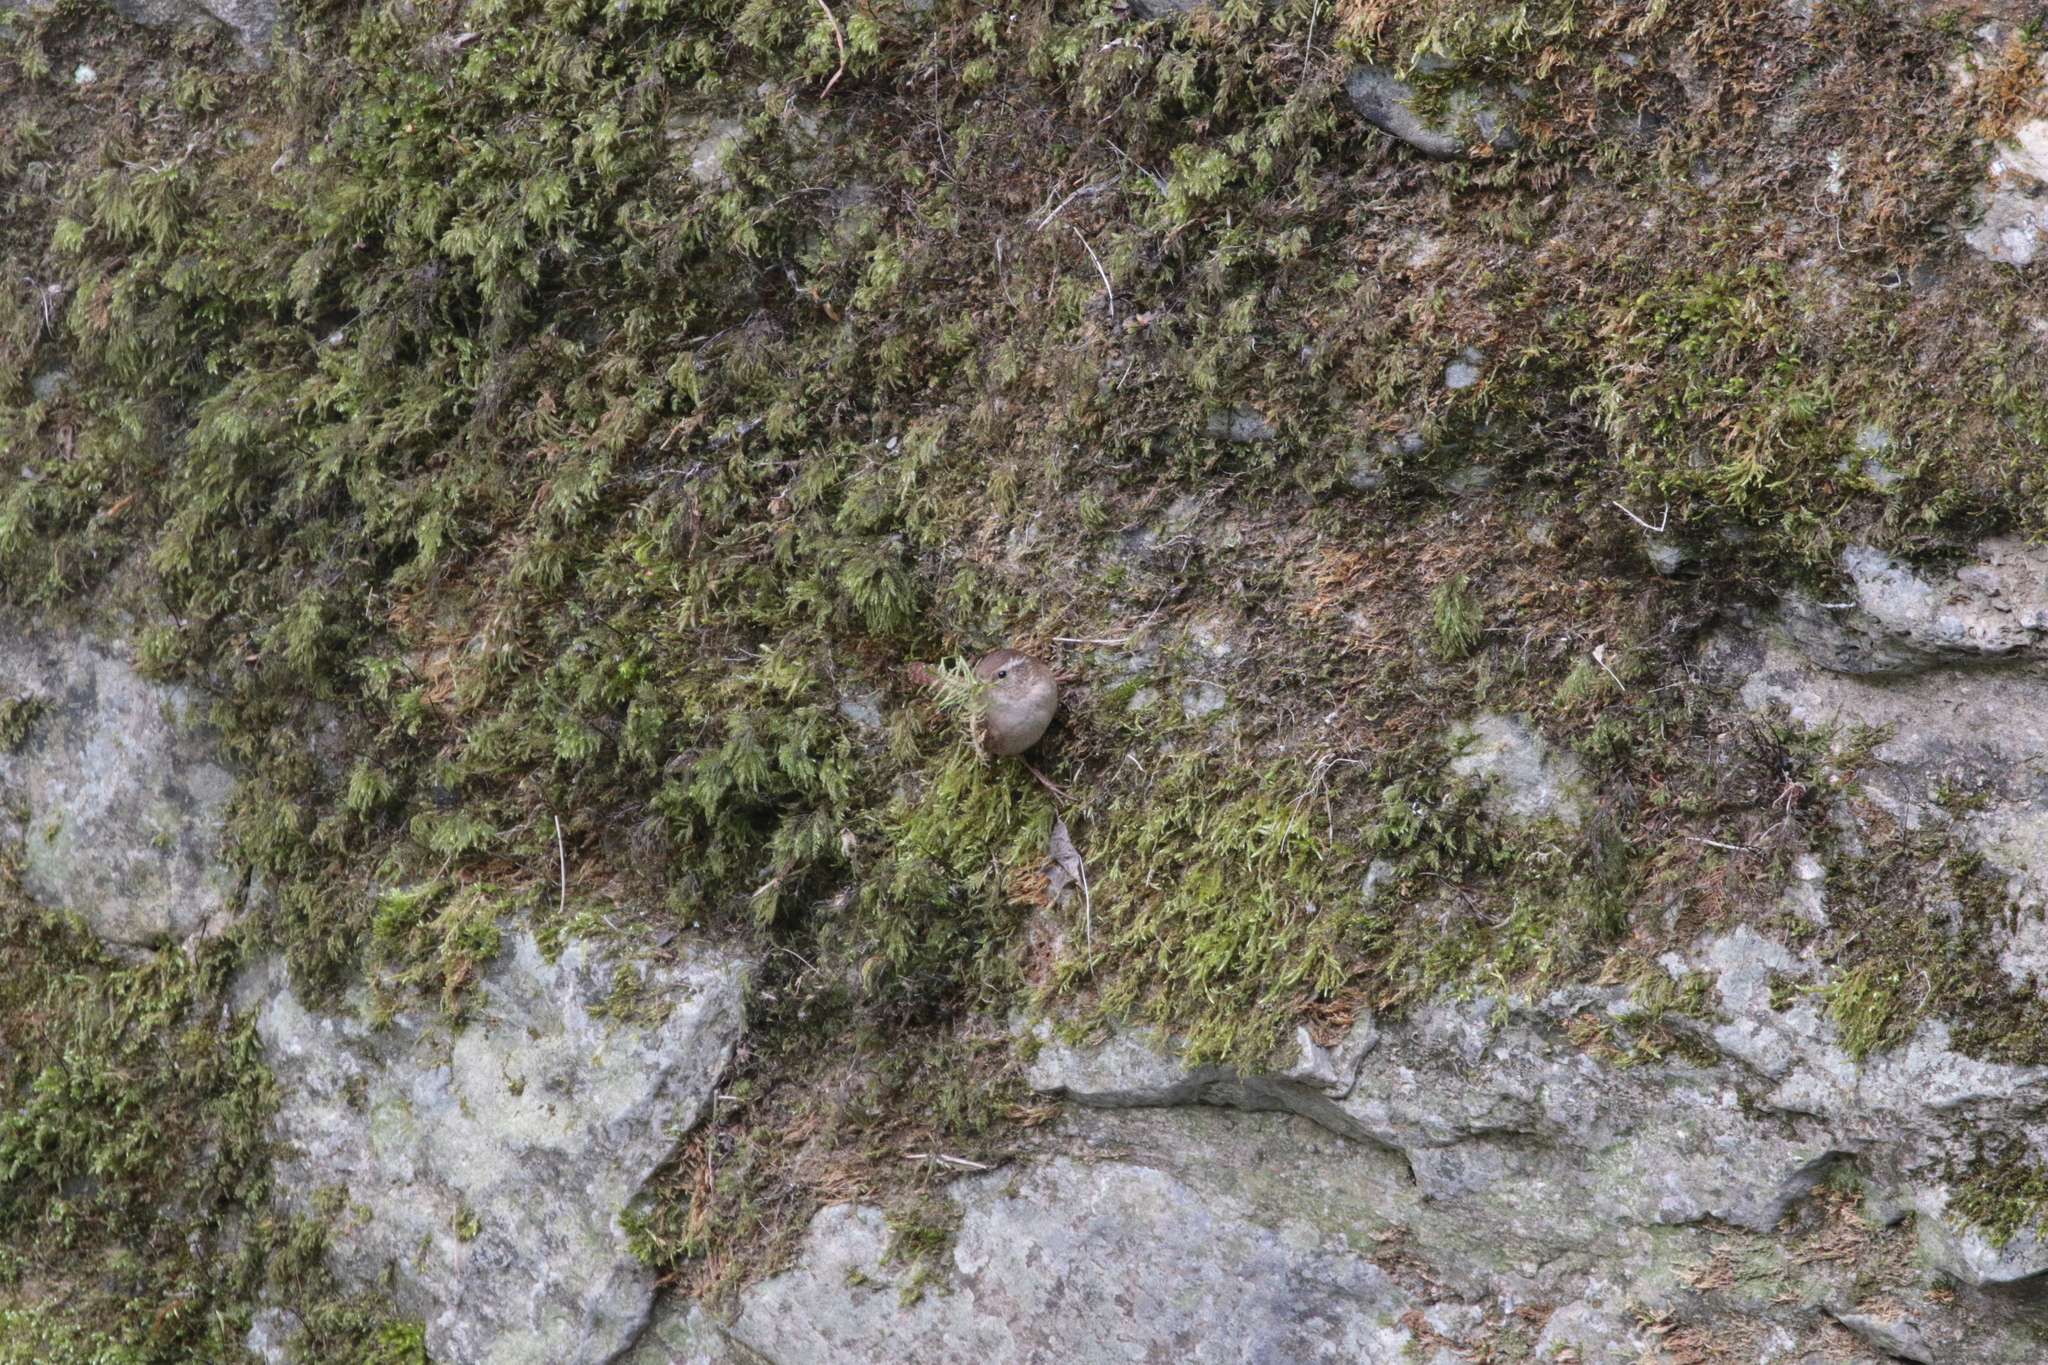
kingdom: Animalia
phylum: Chordata
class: Aves
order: Passeriformes
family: Troglodytidae
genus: Troglodytes
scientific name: Troglodytes troglodytes
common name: Eurasian wren
